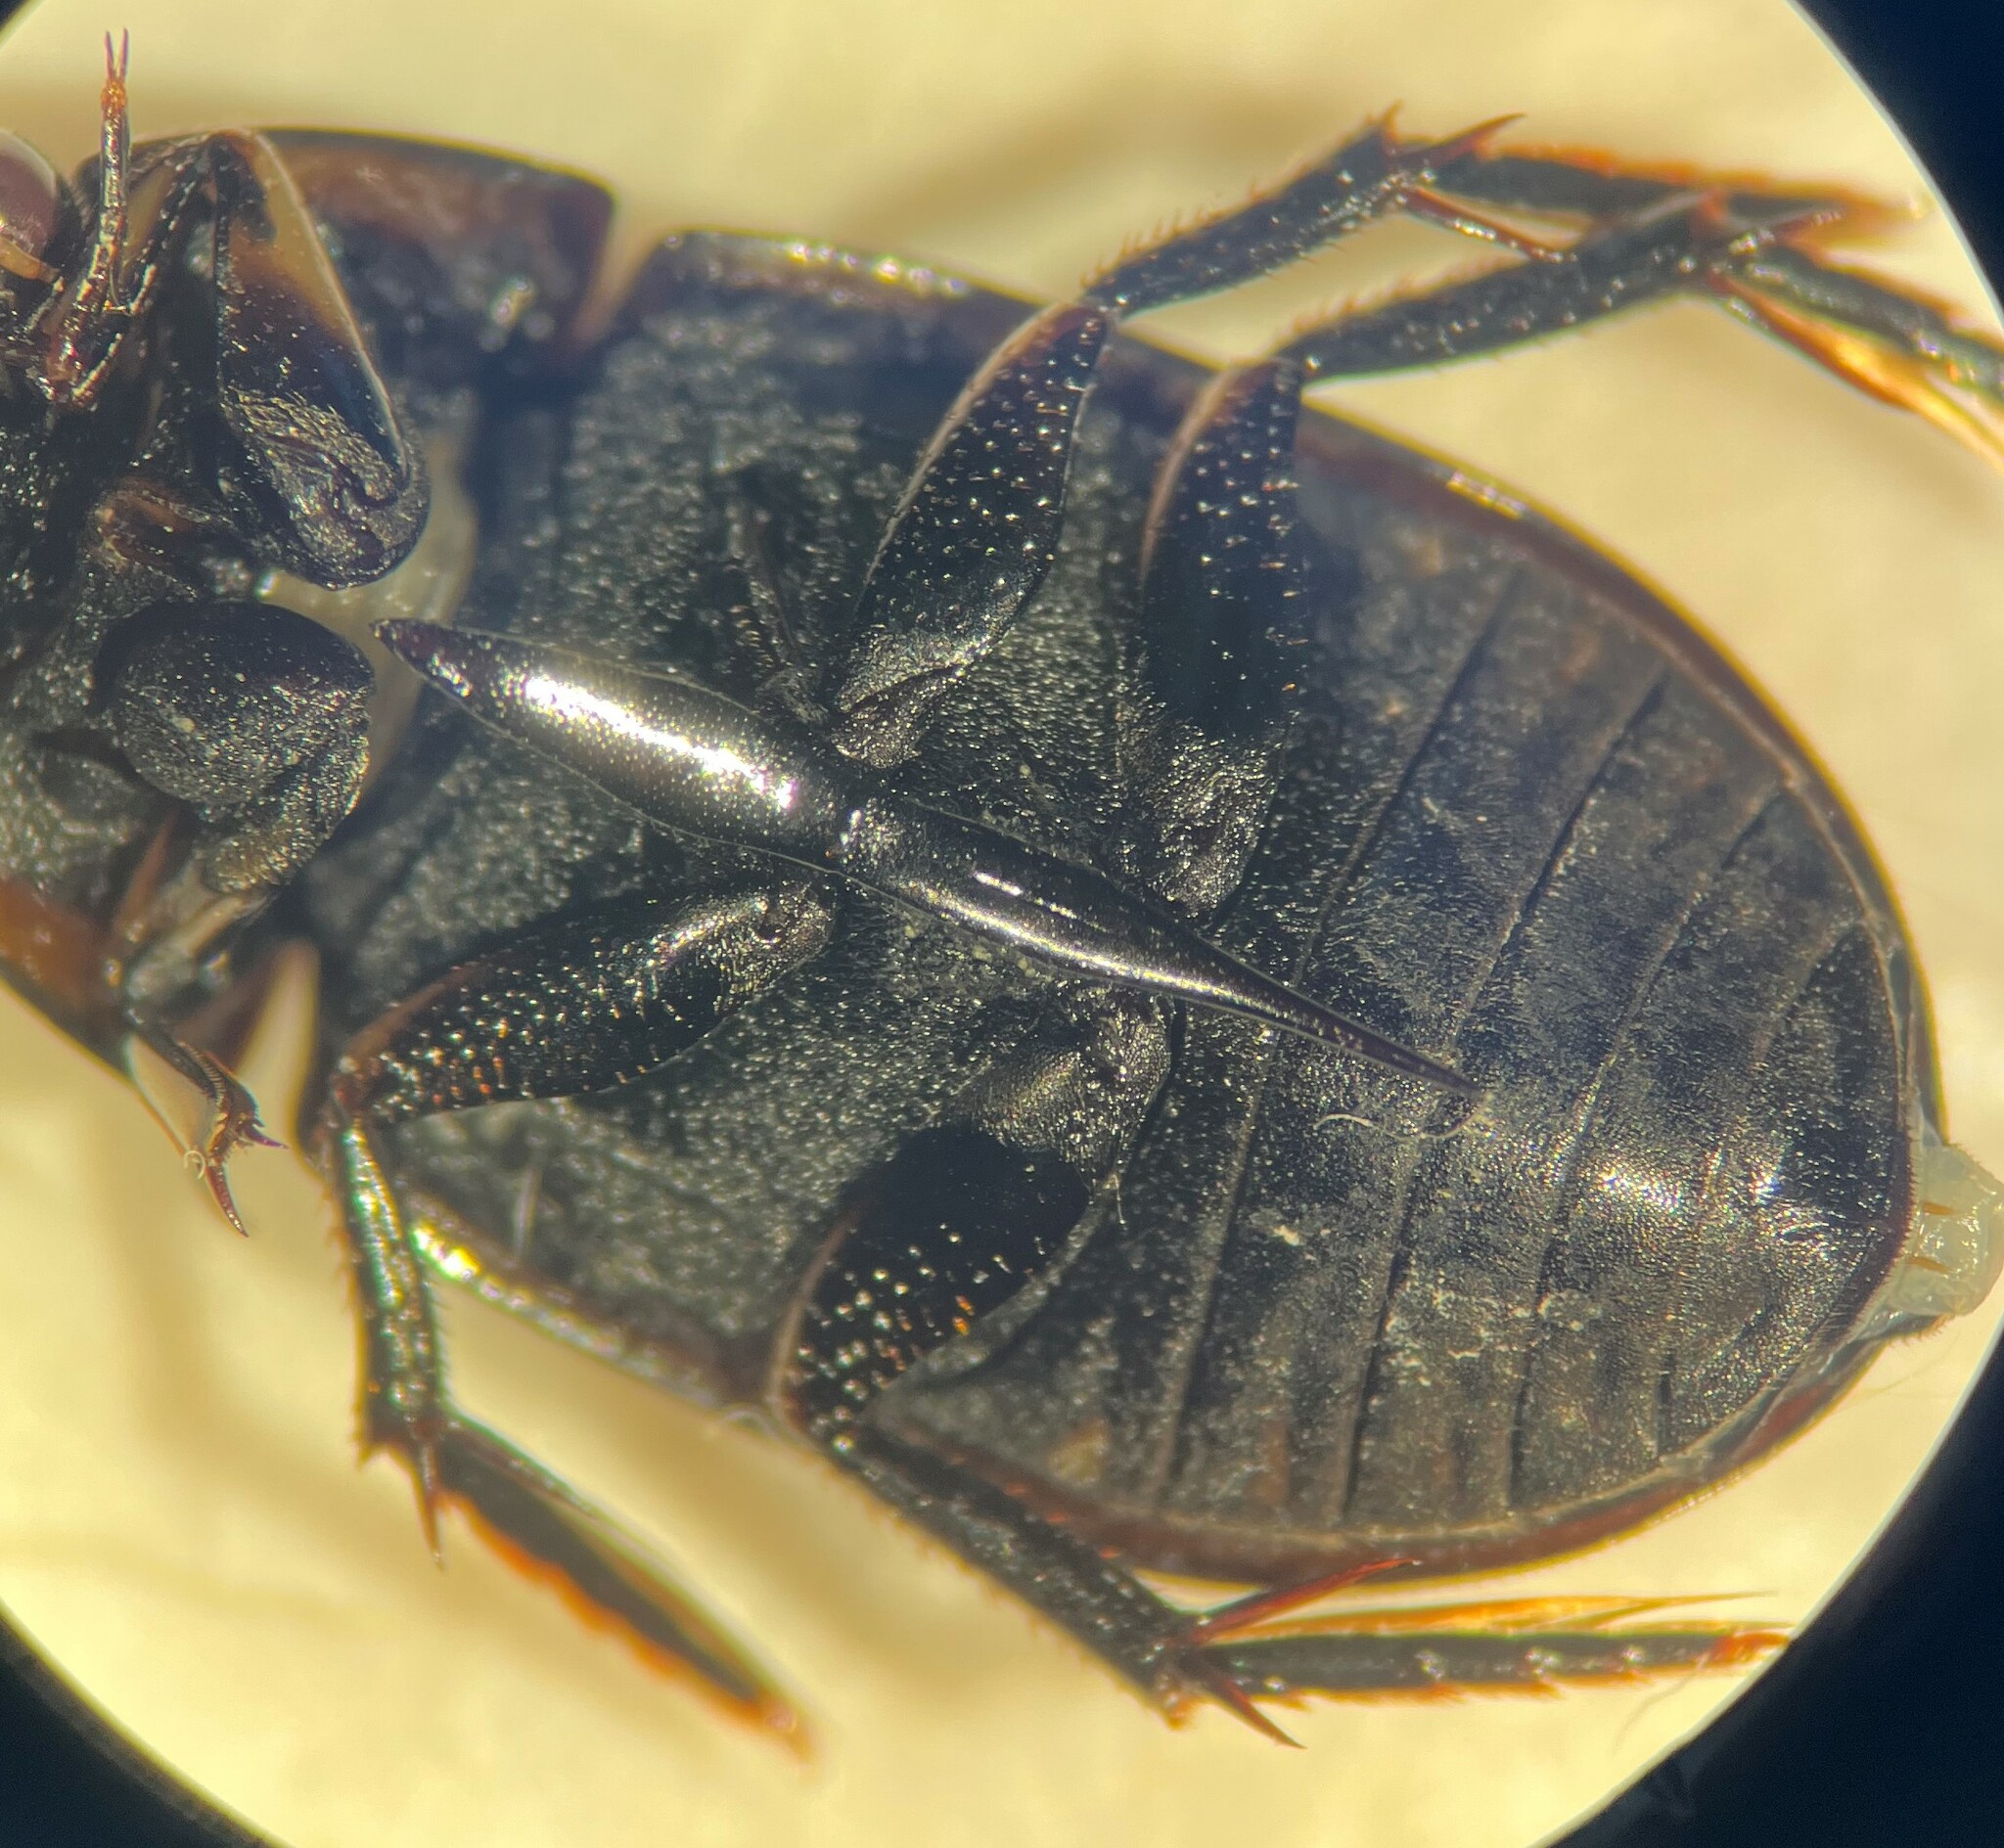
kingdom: Animalia
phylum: Arthropoda
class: Insecta
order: Coleoptera
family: Hydrophilidae
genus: Tropisternus
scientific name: Tropisternus affinis
